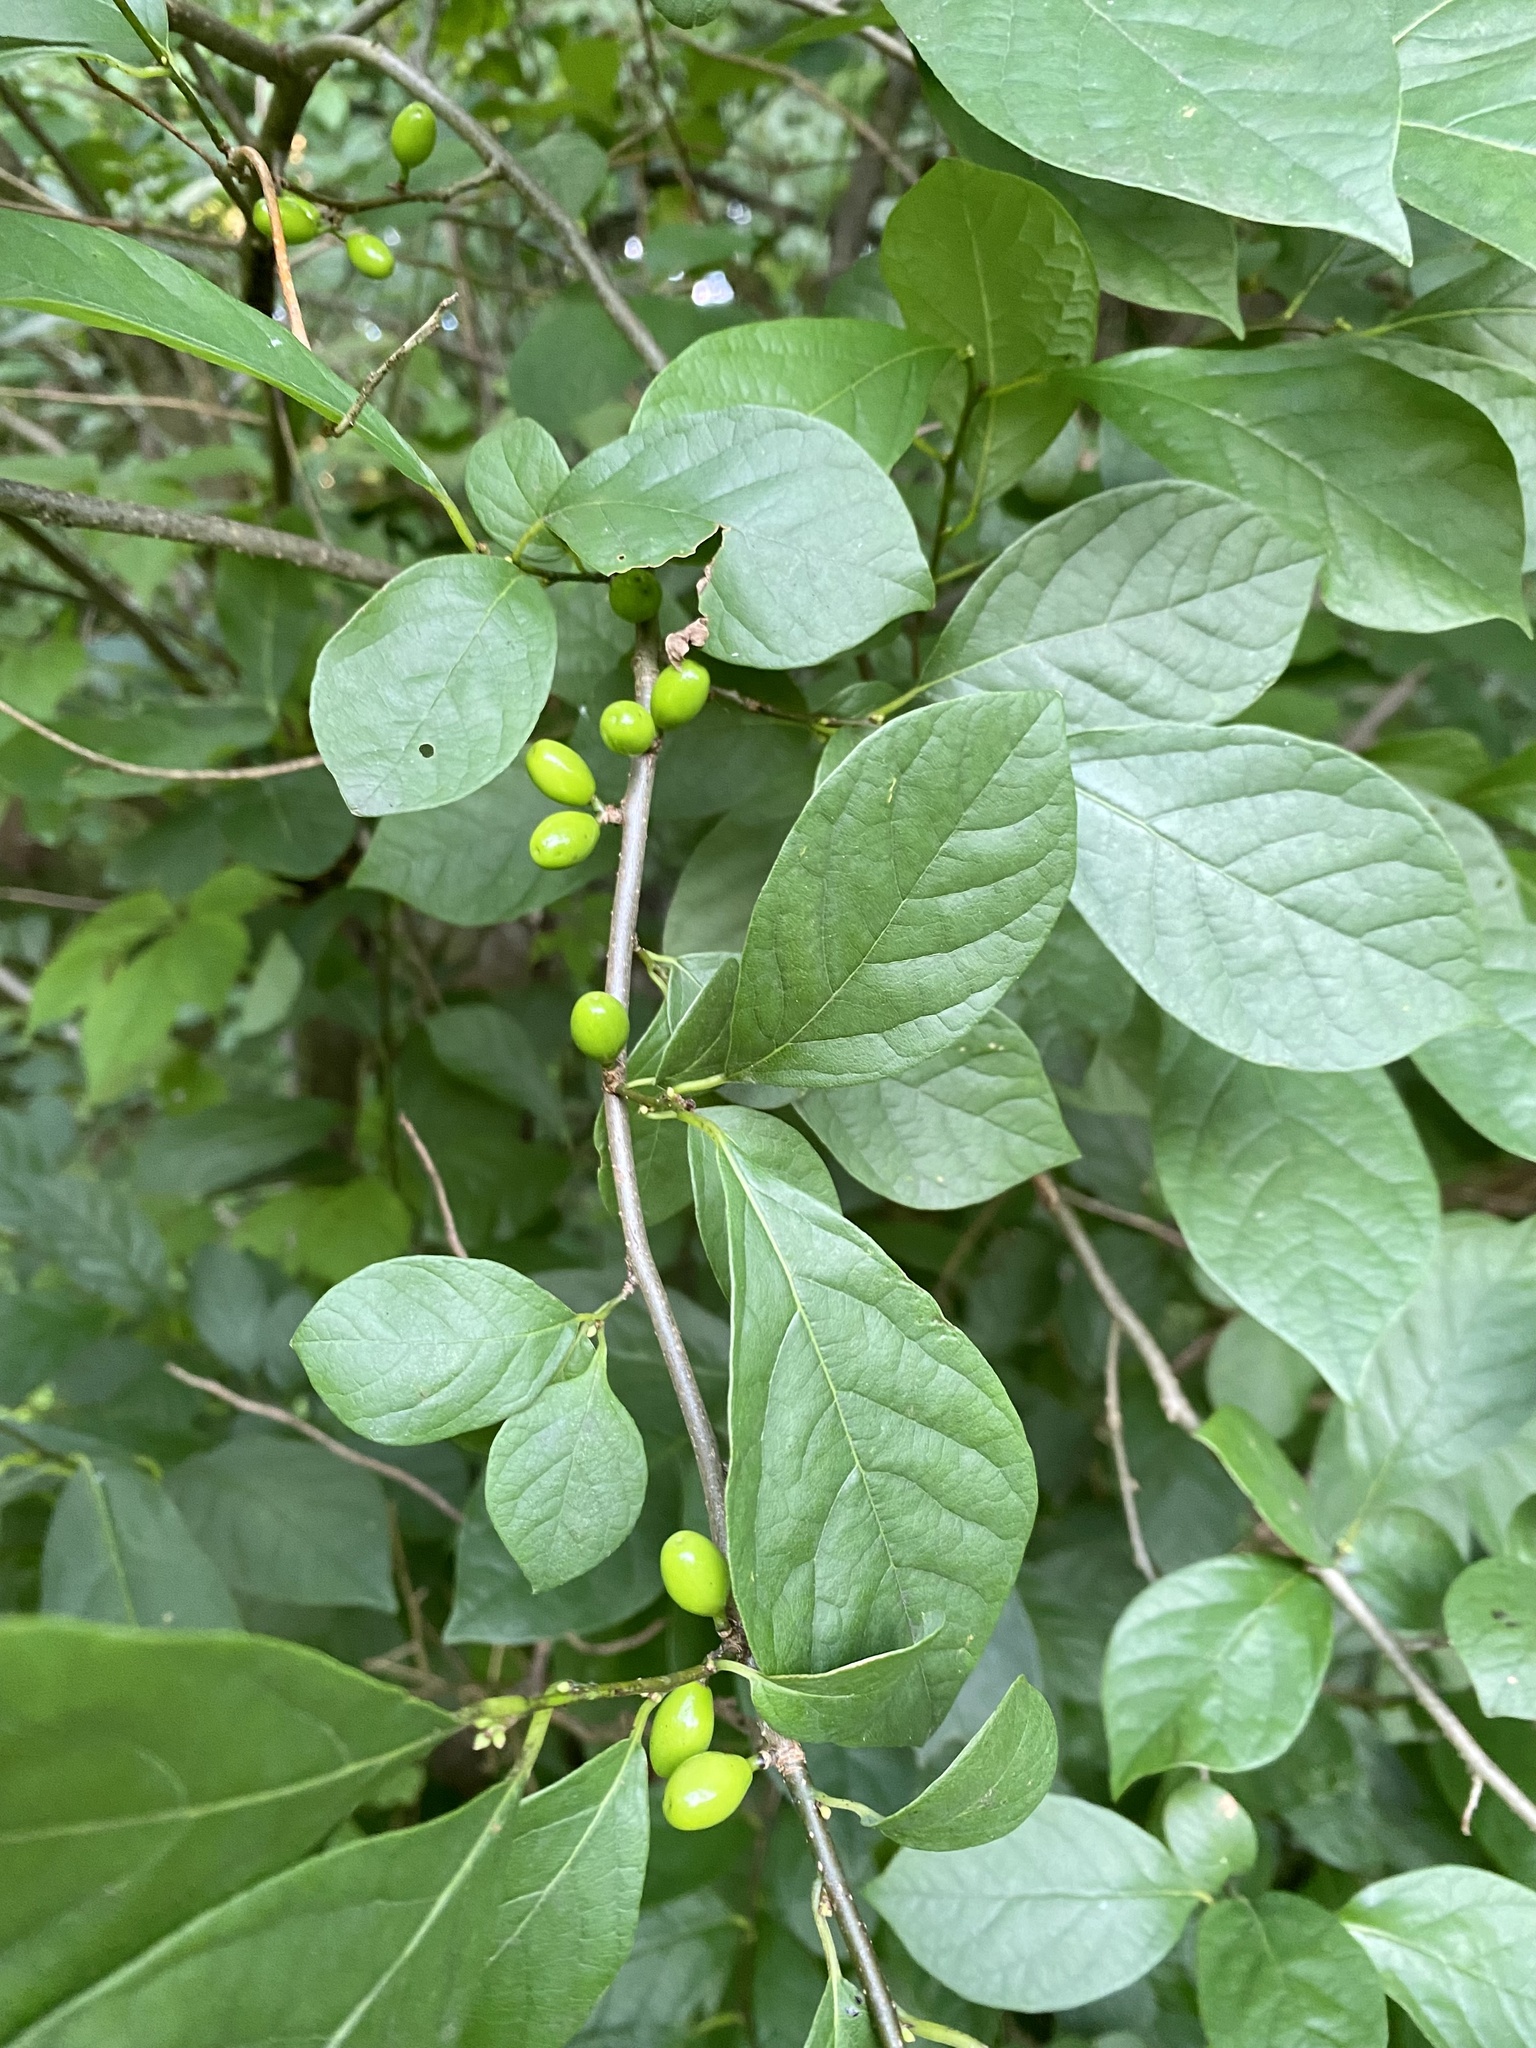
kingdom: Plantae
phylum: Tracheophyta
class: Magnoliopsida
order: Laurales
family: Lauraceae
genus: Lindera
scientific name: Lindera benzoin
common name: Spicebush
